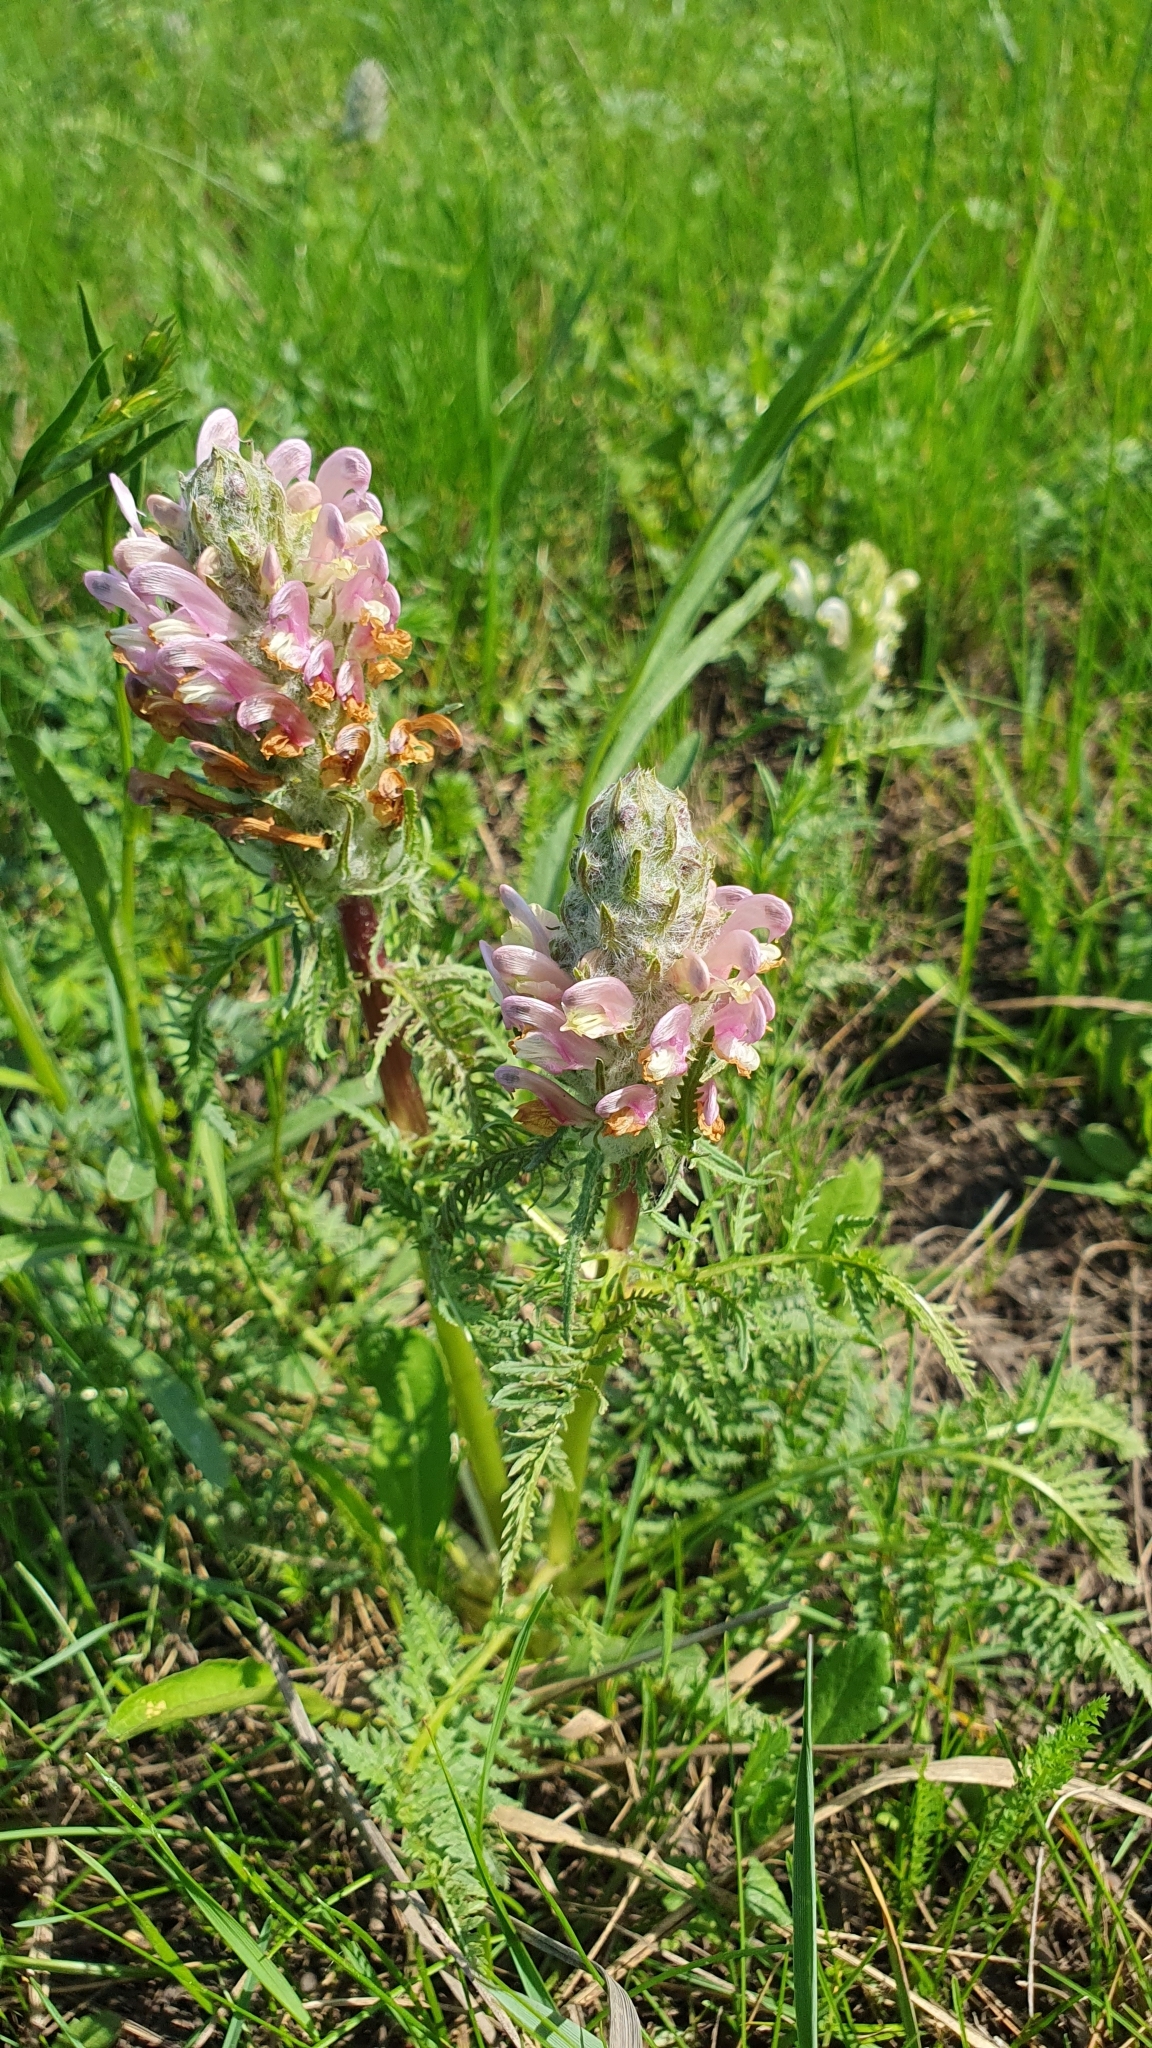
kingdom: Plantae
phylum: Tracheophyta
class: Magnoliopsida
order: Lamiales
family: Orobanchaceae
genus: Pedicularis
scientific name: Pedicularis dasystachys
